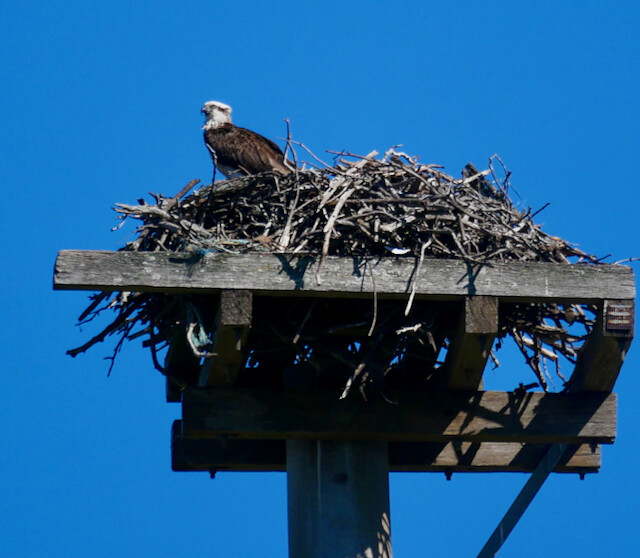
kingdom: Animalia
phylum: Chordata
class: Aves
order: Accipitriformes
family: Pandionidae
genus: Pandion
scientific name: Pandion haliaetus
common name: Osprey
